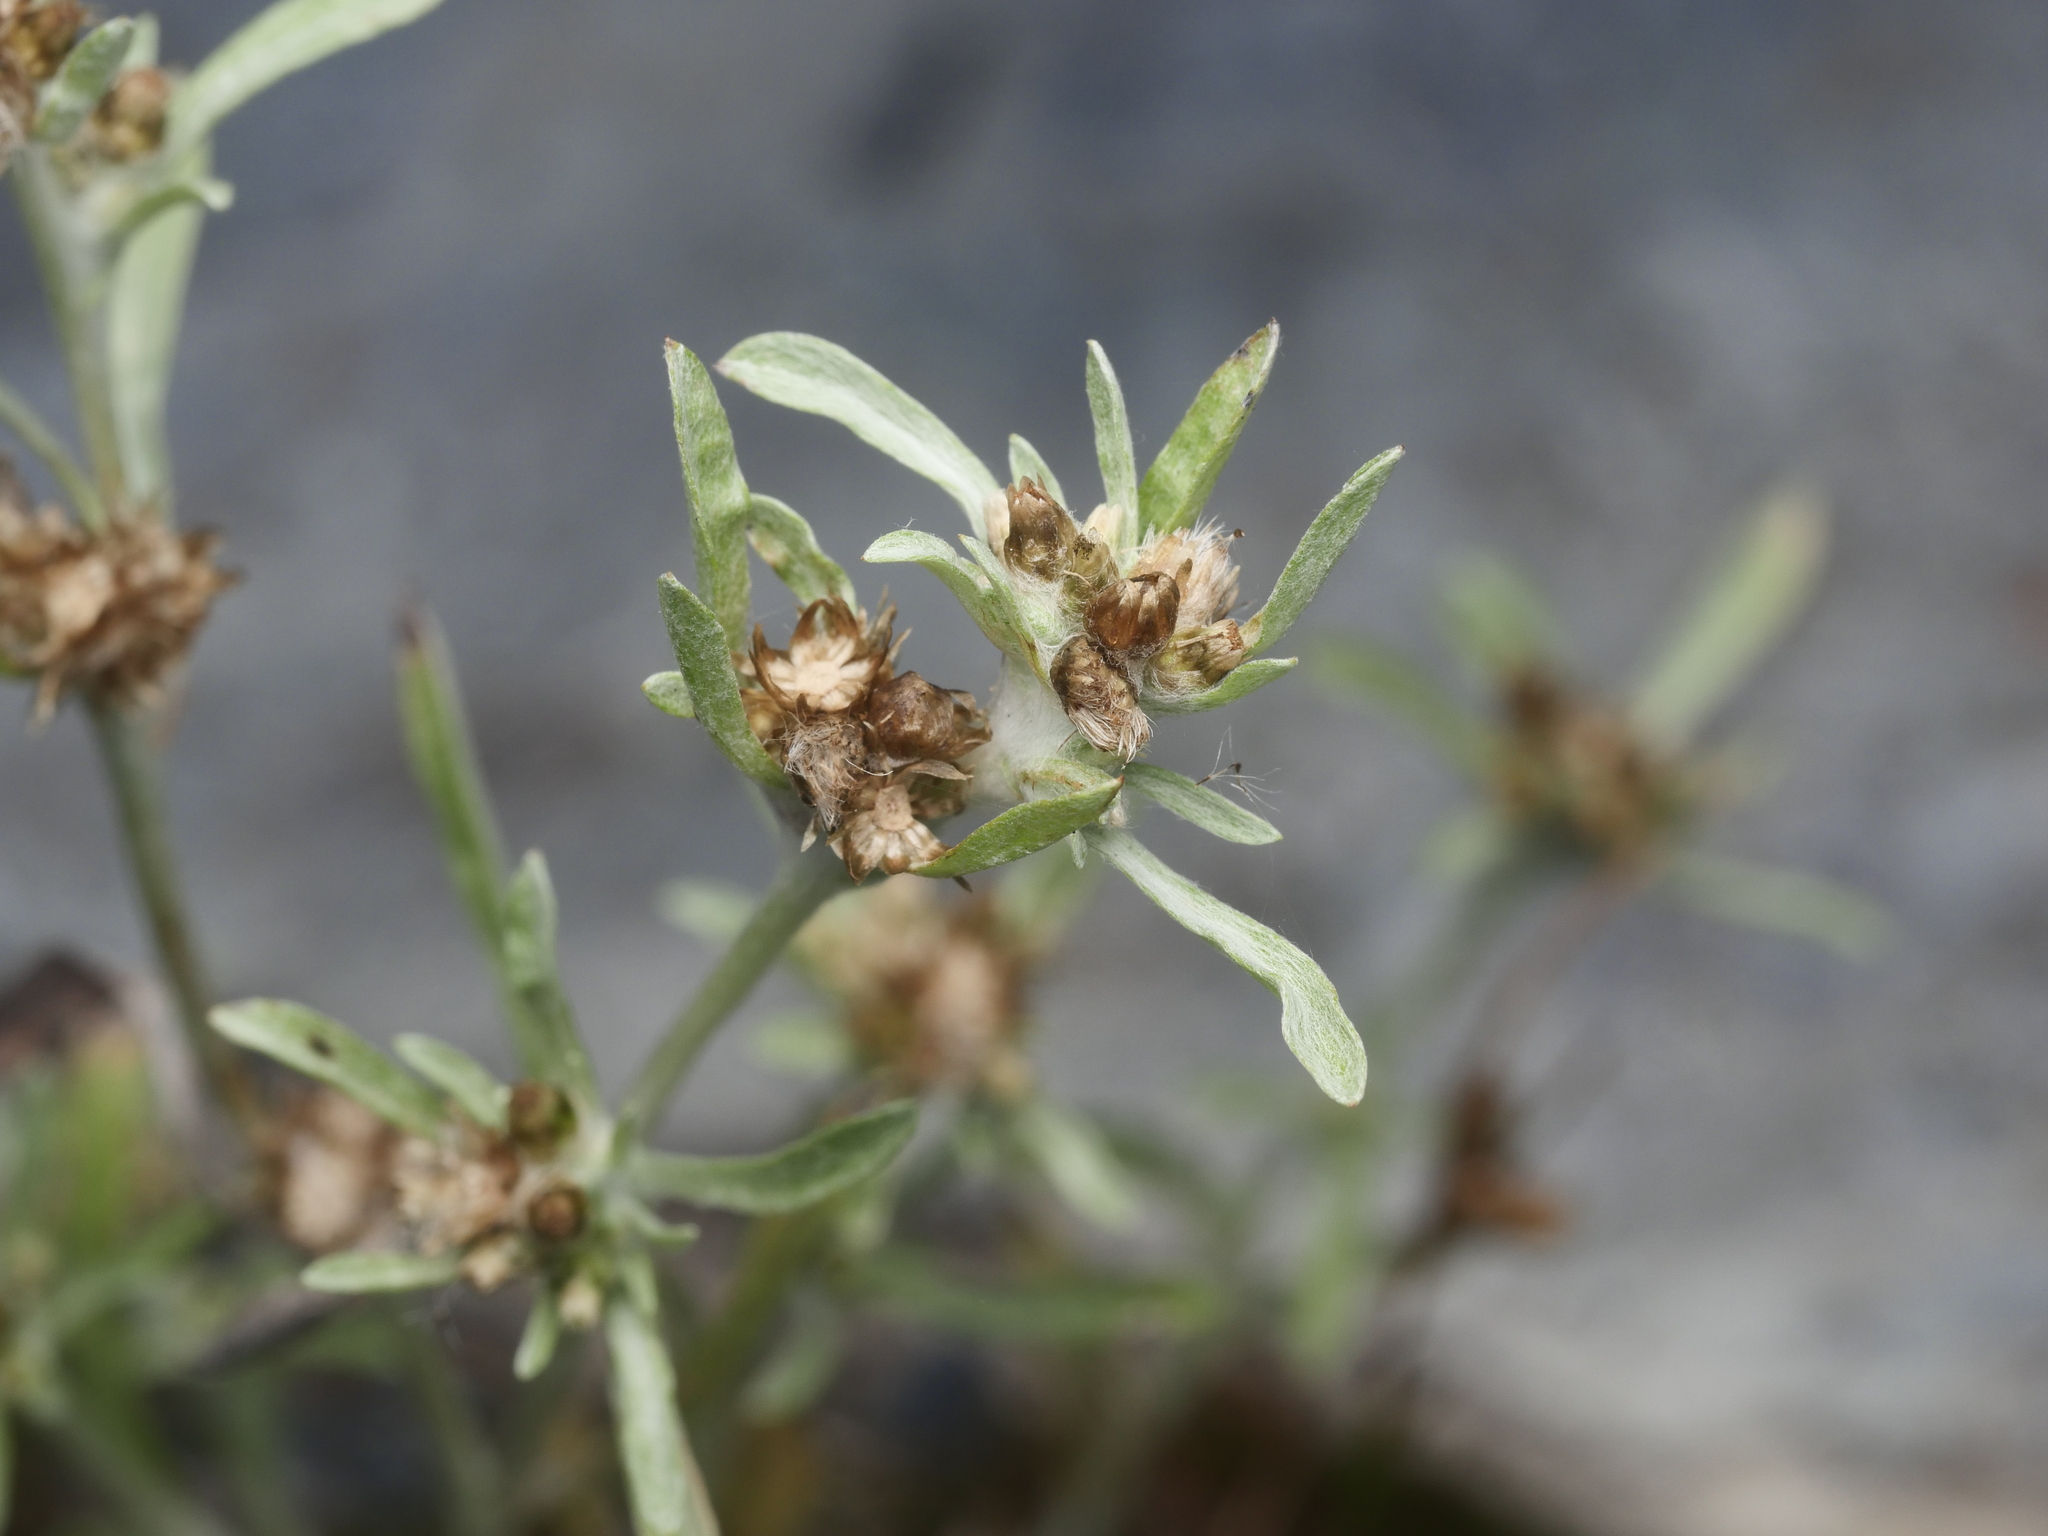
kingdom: Plantae
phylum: Tracheophyta
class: Magnoliopsida
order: Asterales
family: Asteraceae
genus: Gnaphalium
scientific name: Gnaphalium uliginosum
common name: Marsh cudweed
